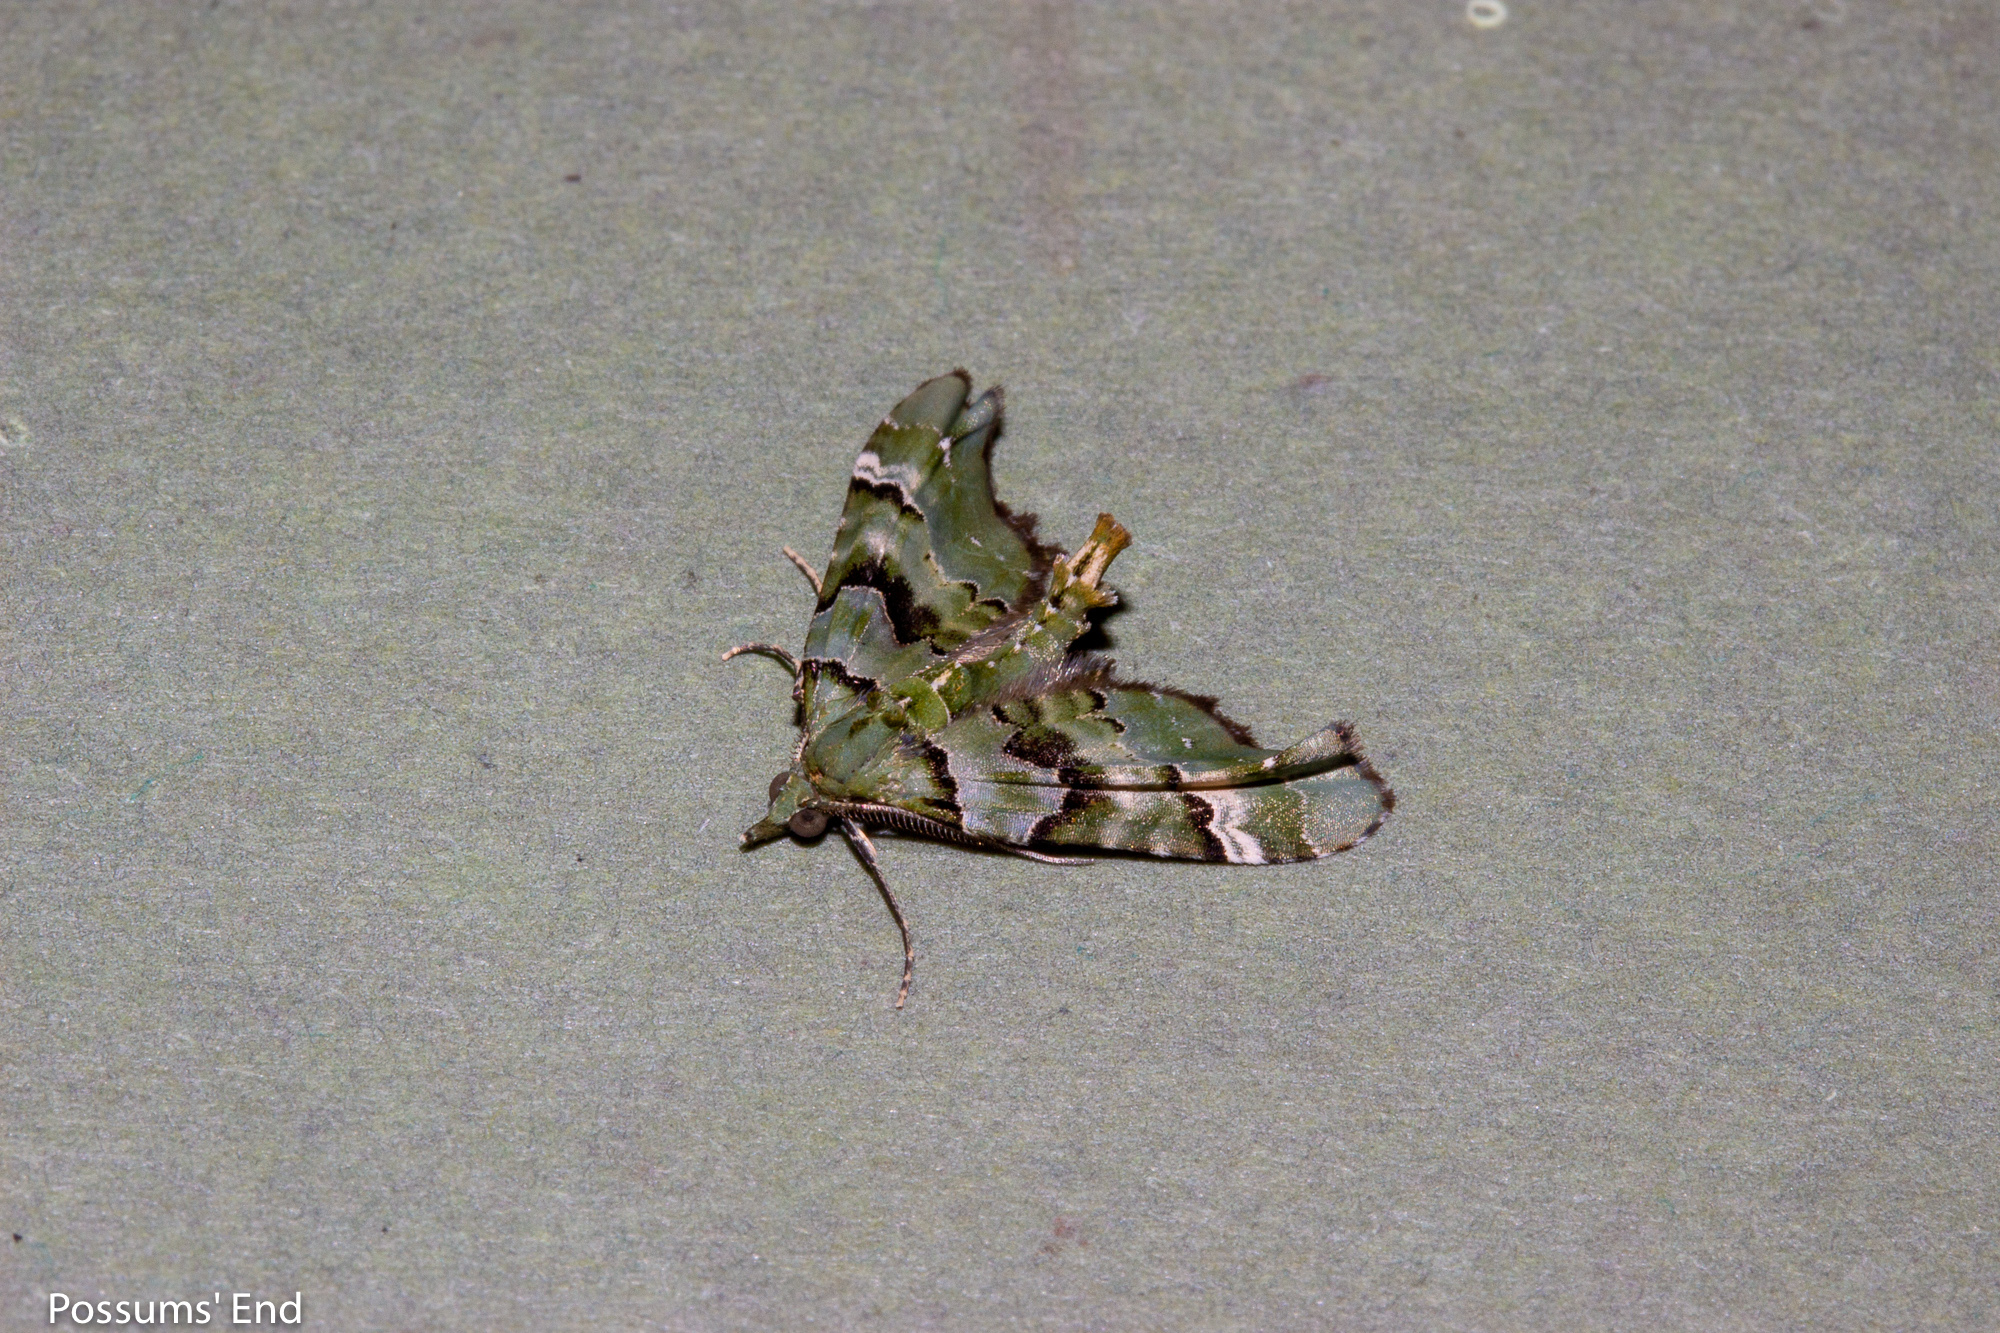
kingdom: Animalia
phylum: Arthropoda
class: Insecta
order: Lepidoptera
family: Geometridae
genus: Elvia
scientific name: Elvia glaucata
